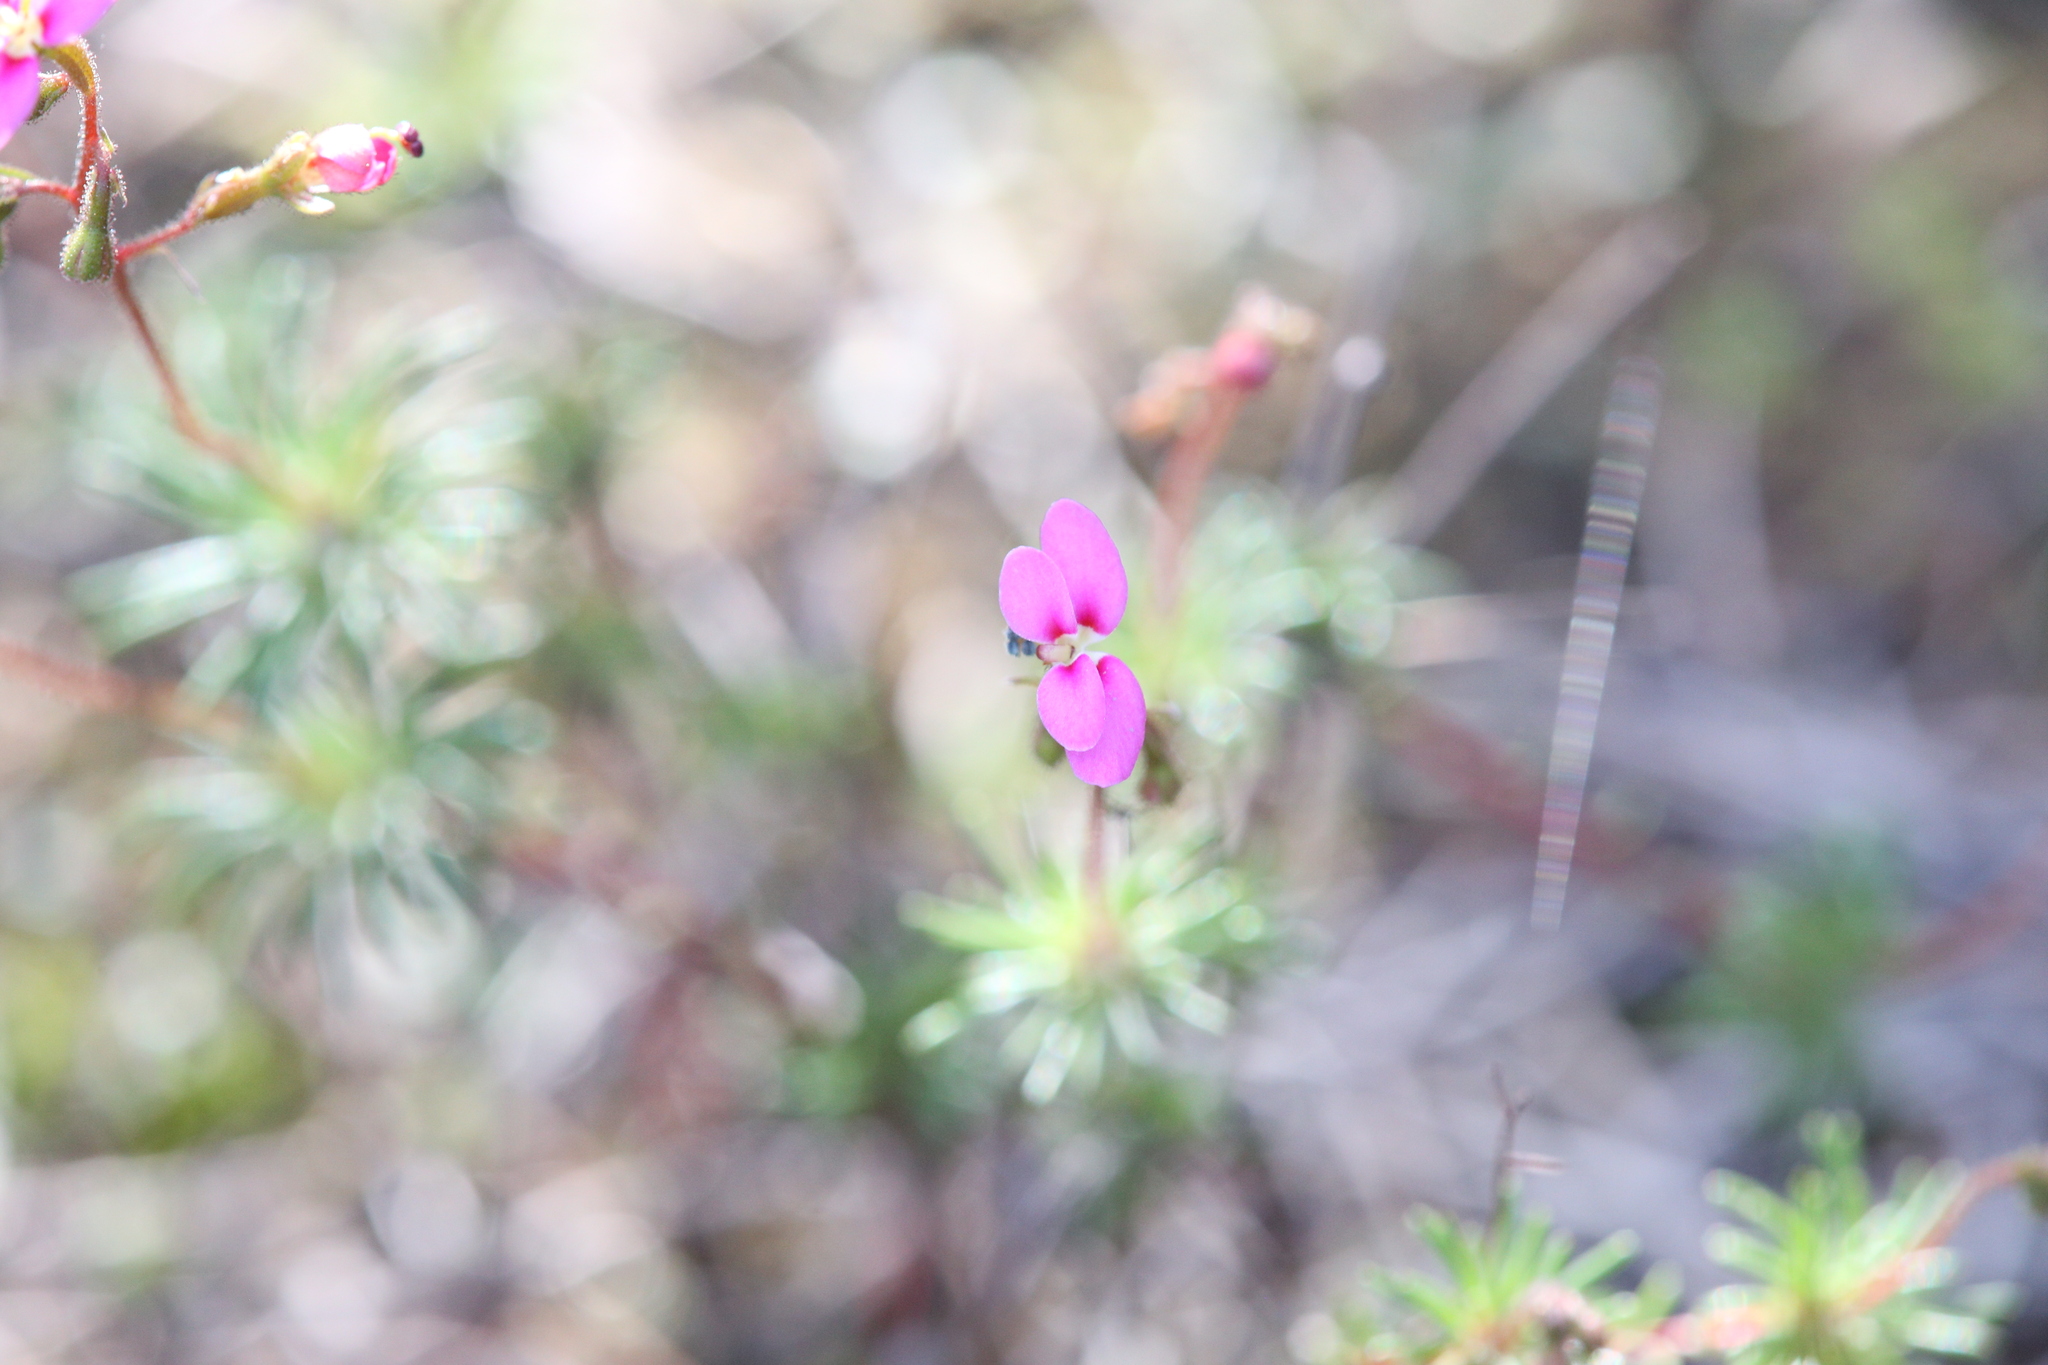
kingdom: Plantae
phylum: Tracheophyta
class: Magnoliopsida
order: Asterales
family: Stylidiaceae
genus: Stylidium
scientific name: Stylidium septentrionale
